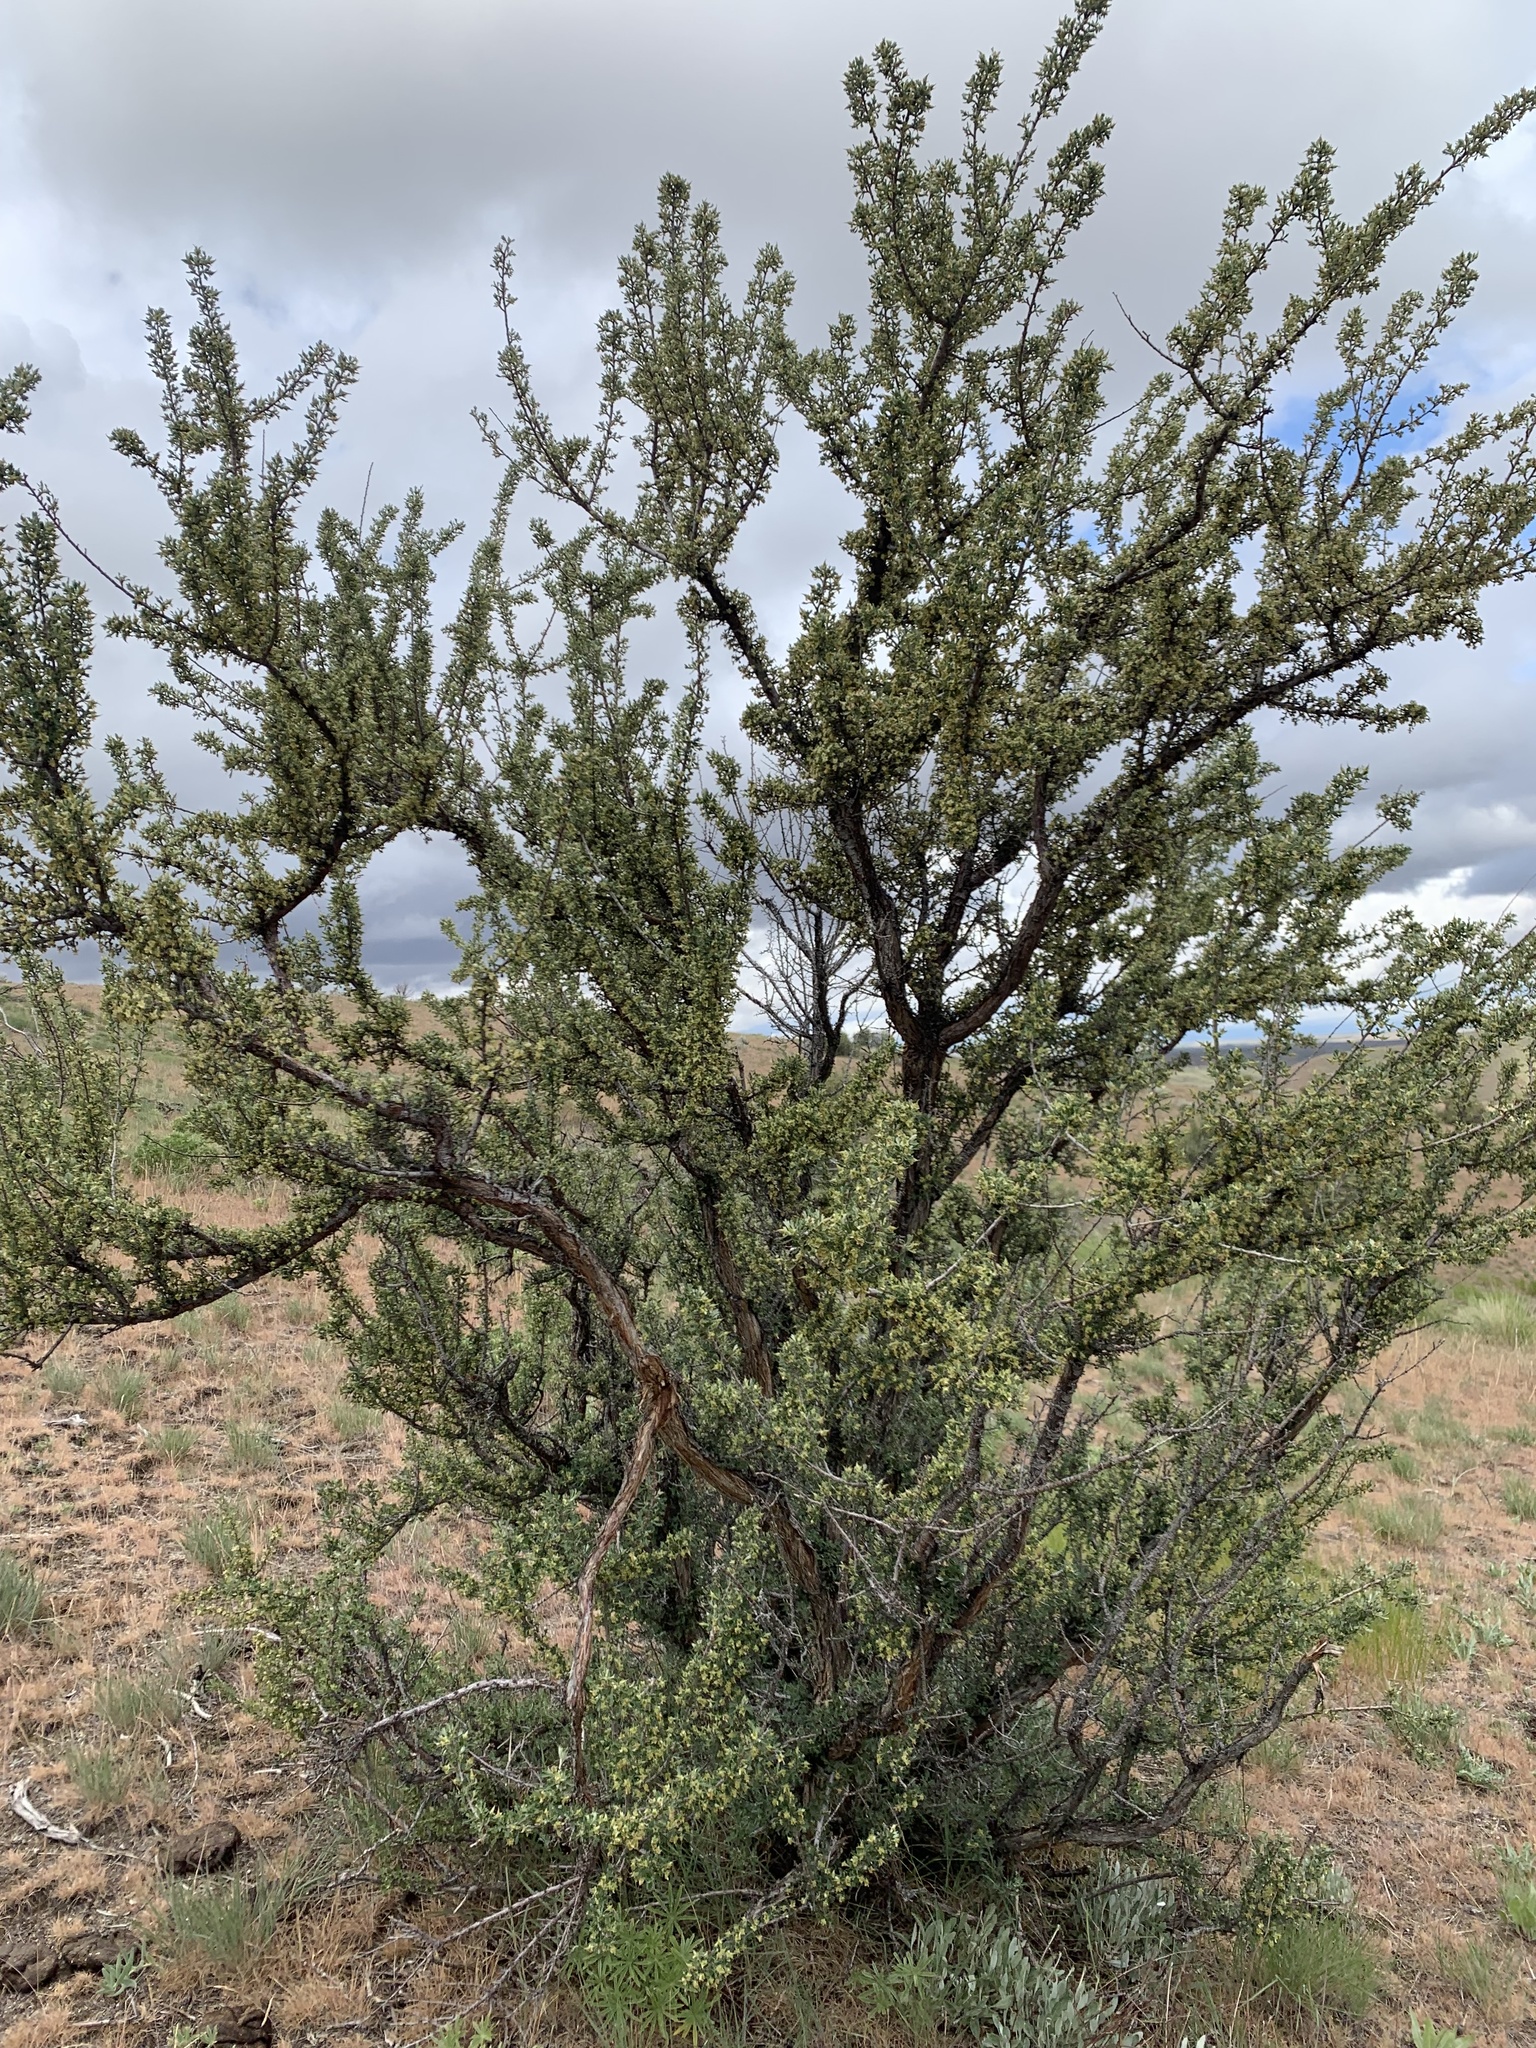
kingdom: Plantae
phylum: Tracheophyta
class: Magnoliopsida
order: Rosales
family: Rosaceae
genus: Purshia
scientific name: Purshia tridentata
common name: Antelope bitterbrush
